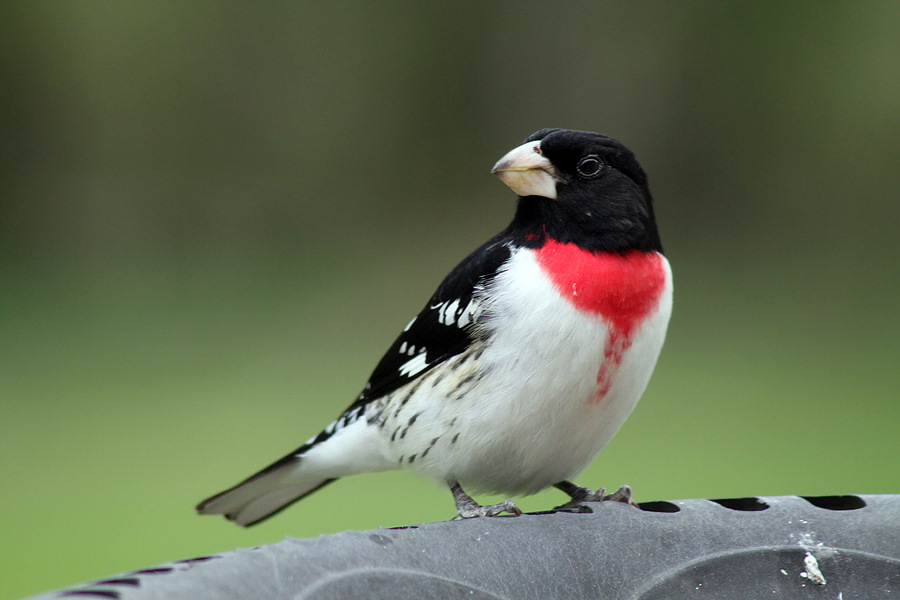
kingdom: Animalia
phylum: Chordata
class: Aves
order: Passeriformes
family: Cardinalidae
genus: Pheucticus
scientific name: Pheucticus ludovicianus
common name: Rose-breasted grosbeak
